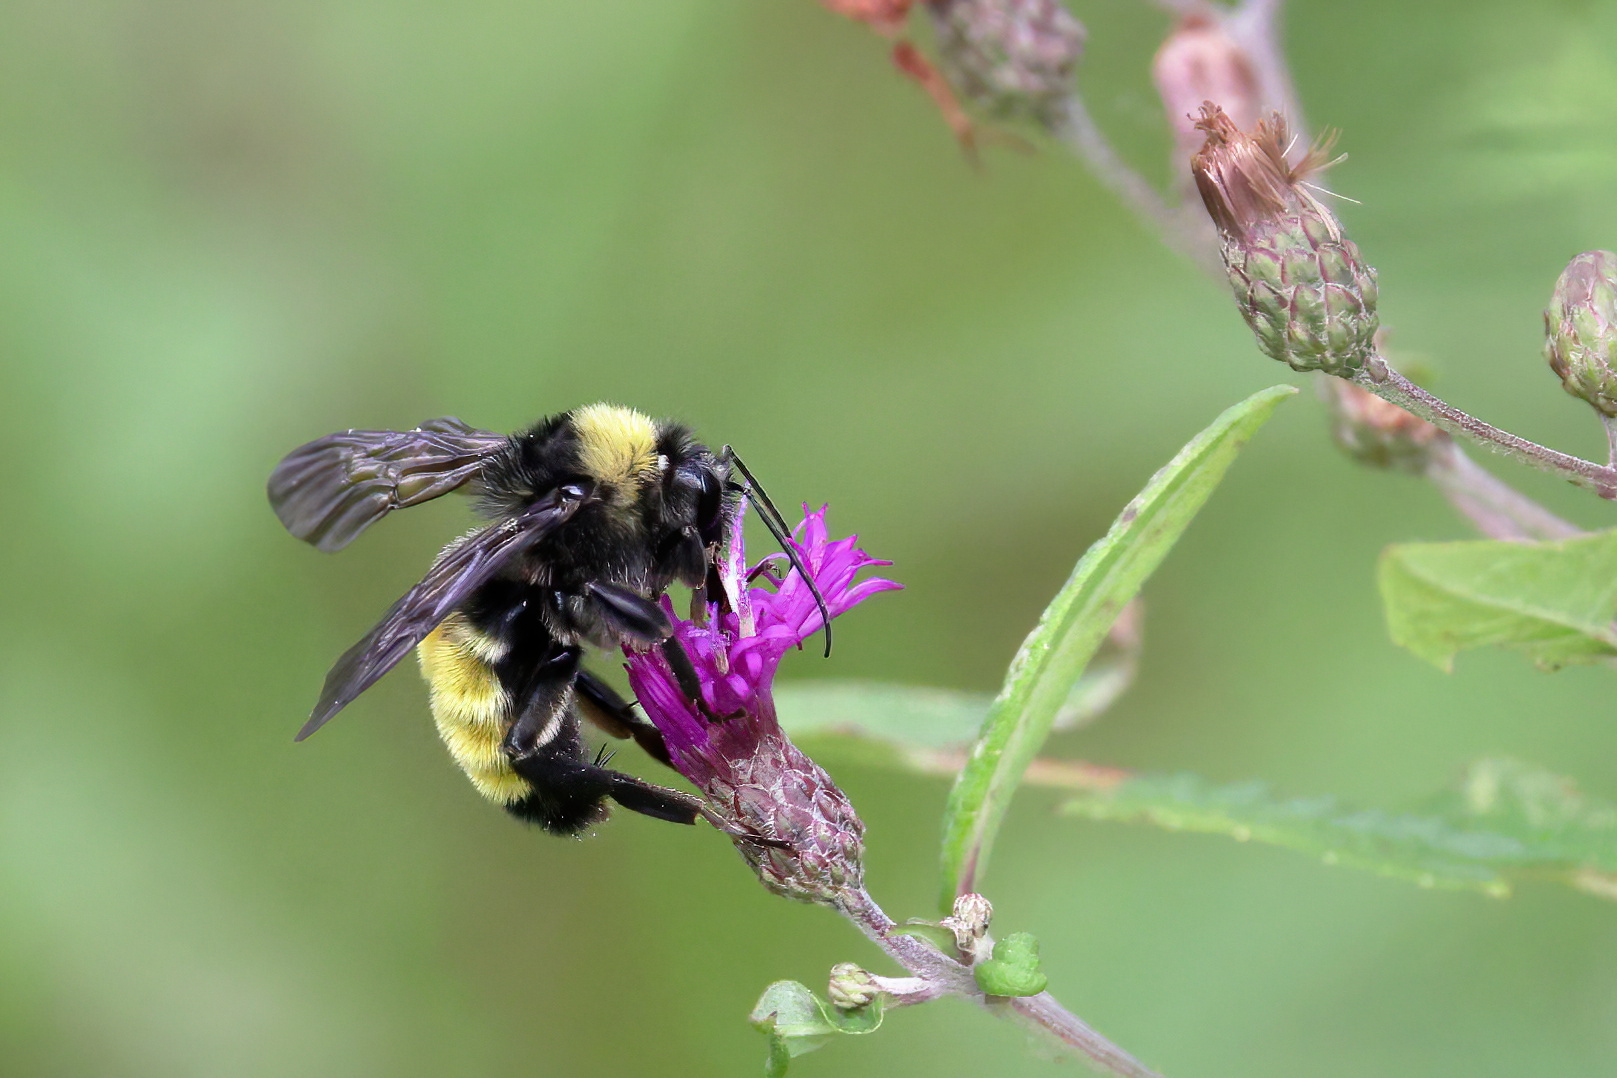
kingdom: Animalia
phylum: Arthropoda
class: Insecta
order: Hymenoptera
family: Apidae
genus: Bombus
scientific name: Bombus pensylvanicus
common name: Bumble bee
